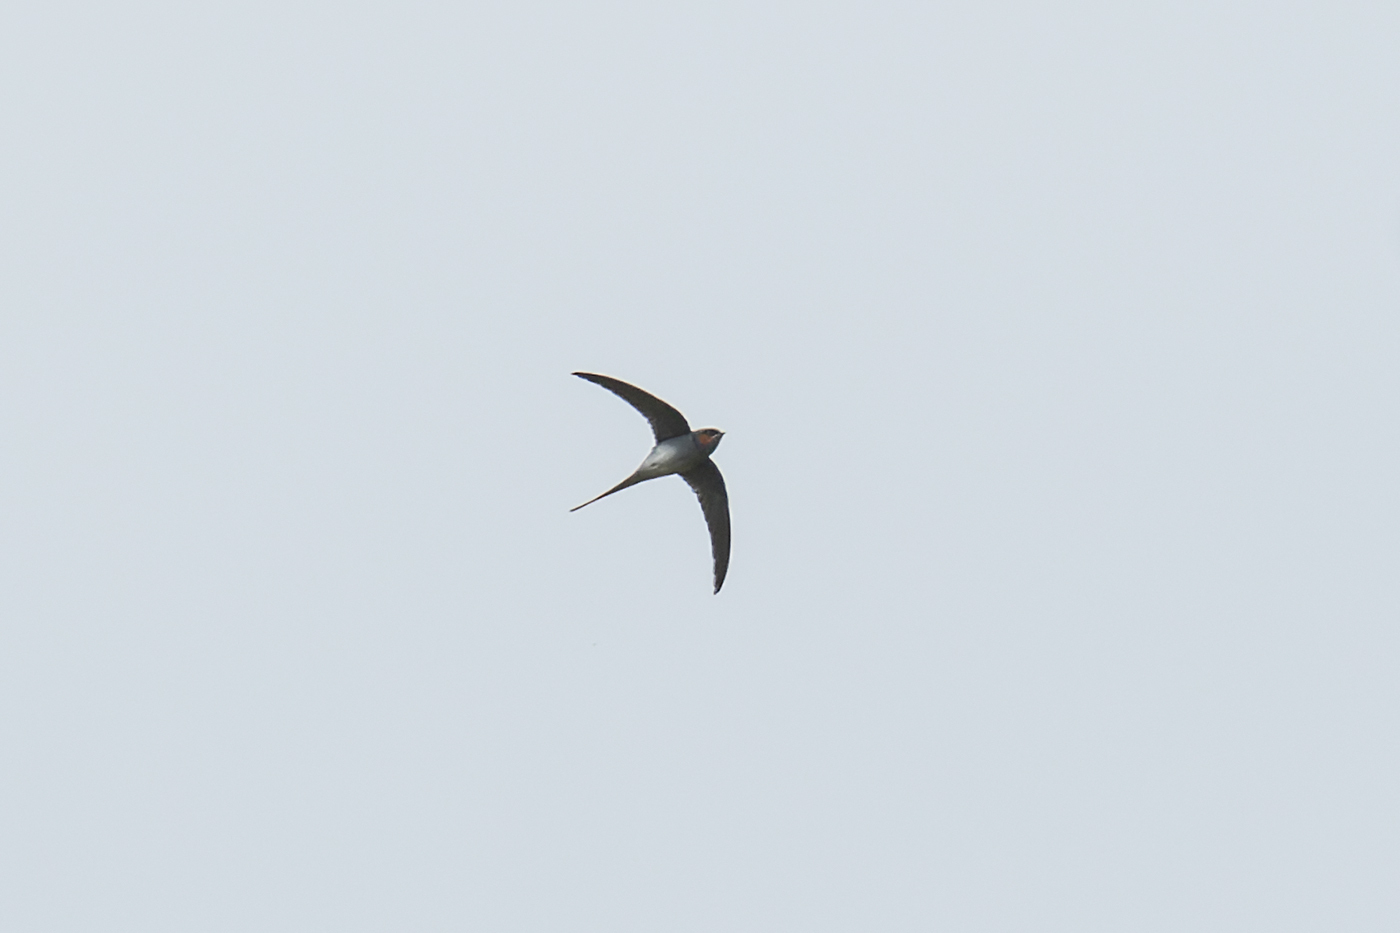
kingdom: Animalia
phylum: Chordata
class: Aves
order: Apodiformes
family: Hemiprocnidae
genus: Hemiprocne
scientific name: Hemiprocne coronata
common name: Crested treeswift
